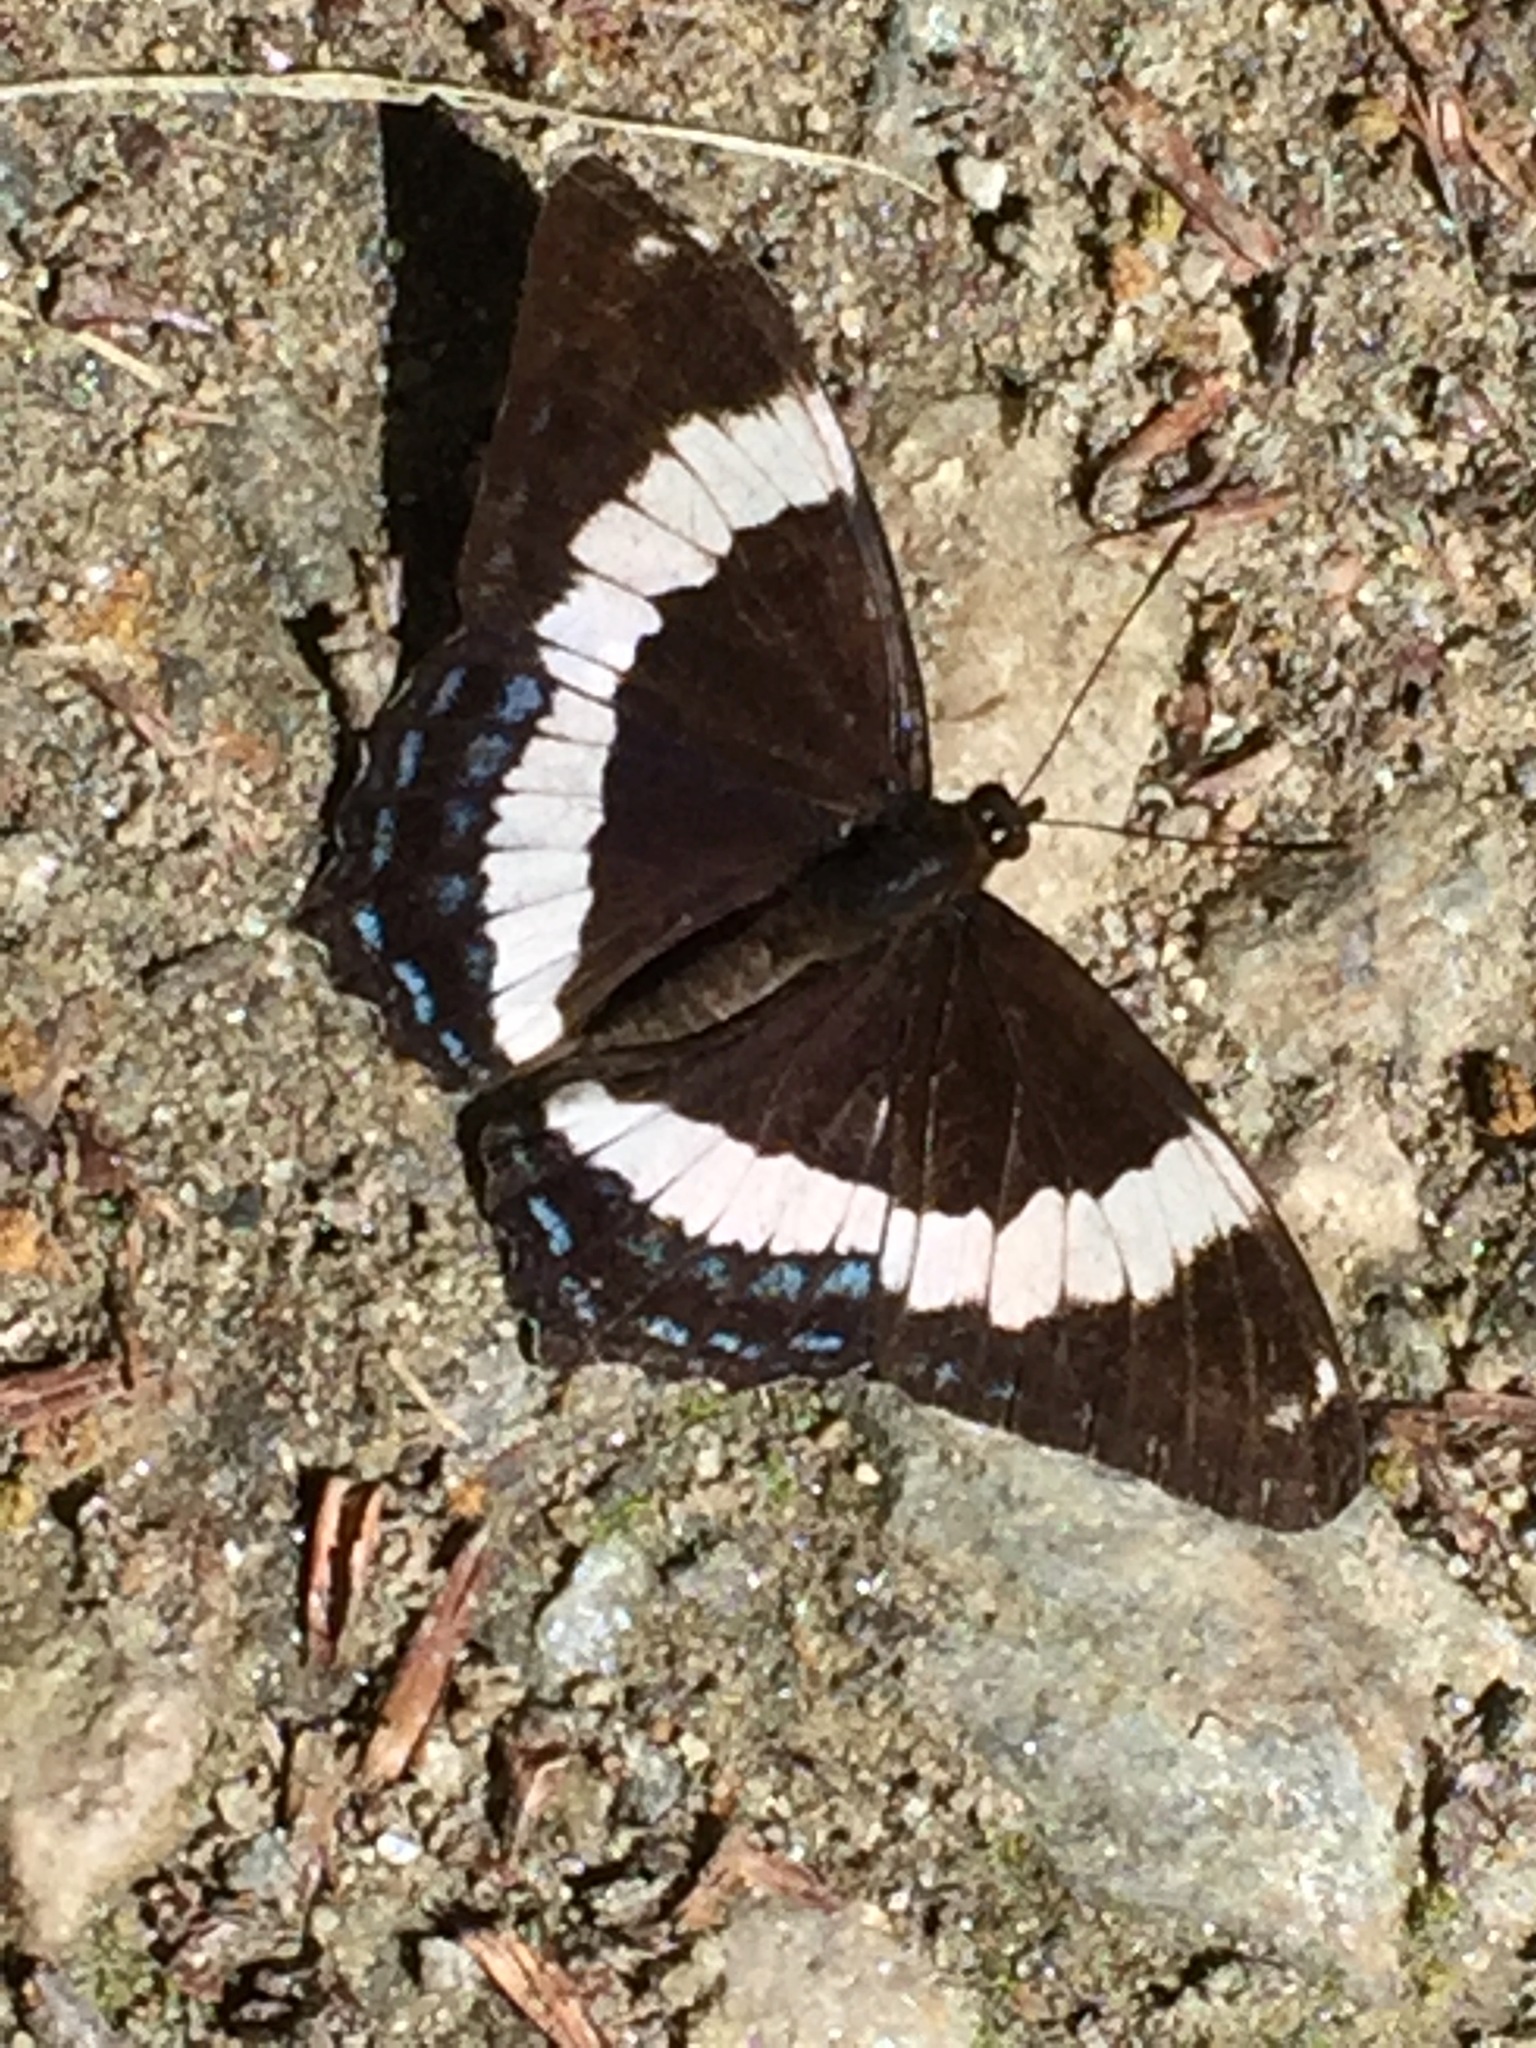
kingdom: Animalia
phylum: Arthropoda
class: Insecta
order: Lepidoptera
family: Nymphalidae
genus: Limenitis
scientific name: Limenitis arthemis
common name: Red-spotted admiral
